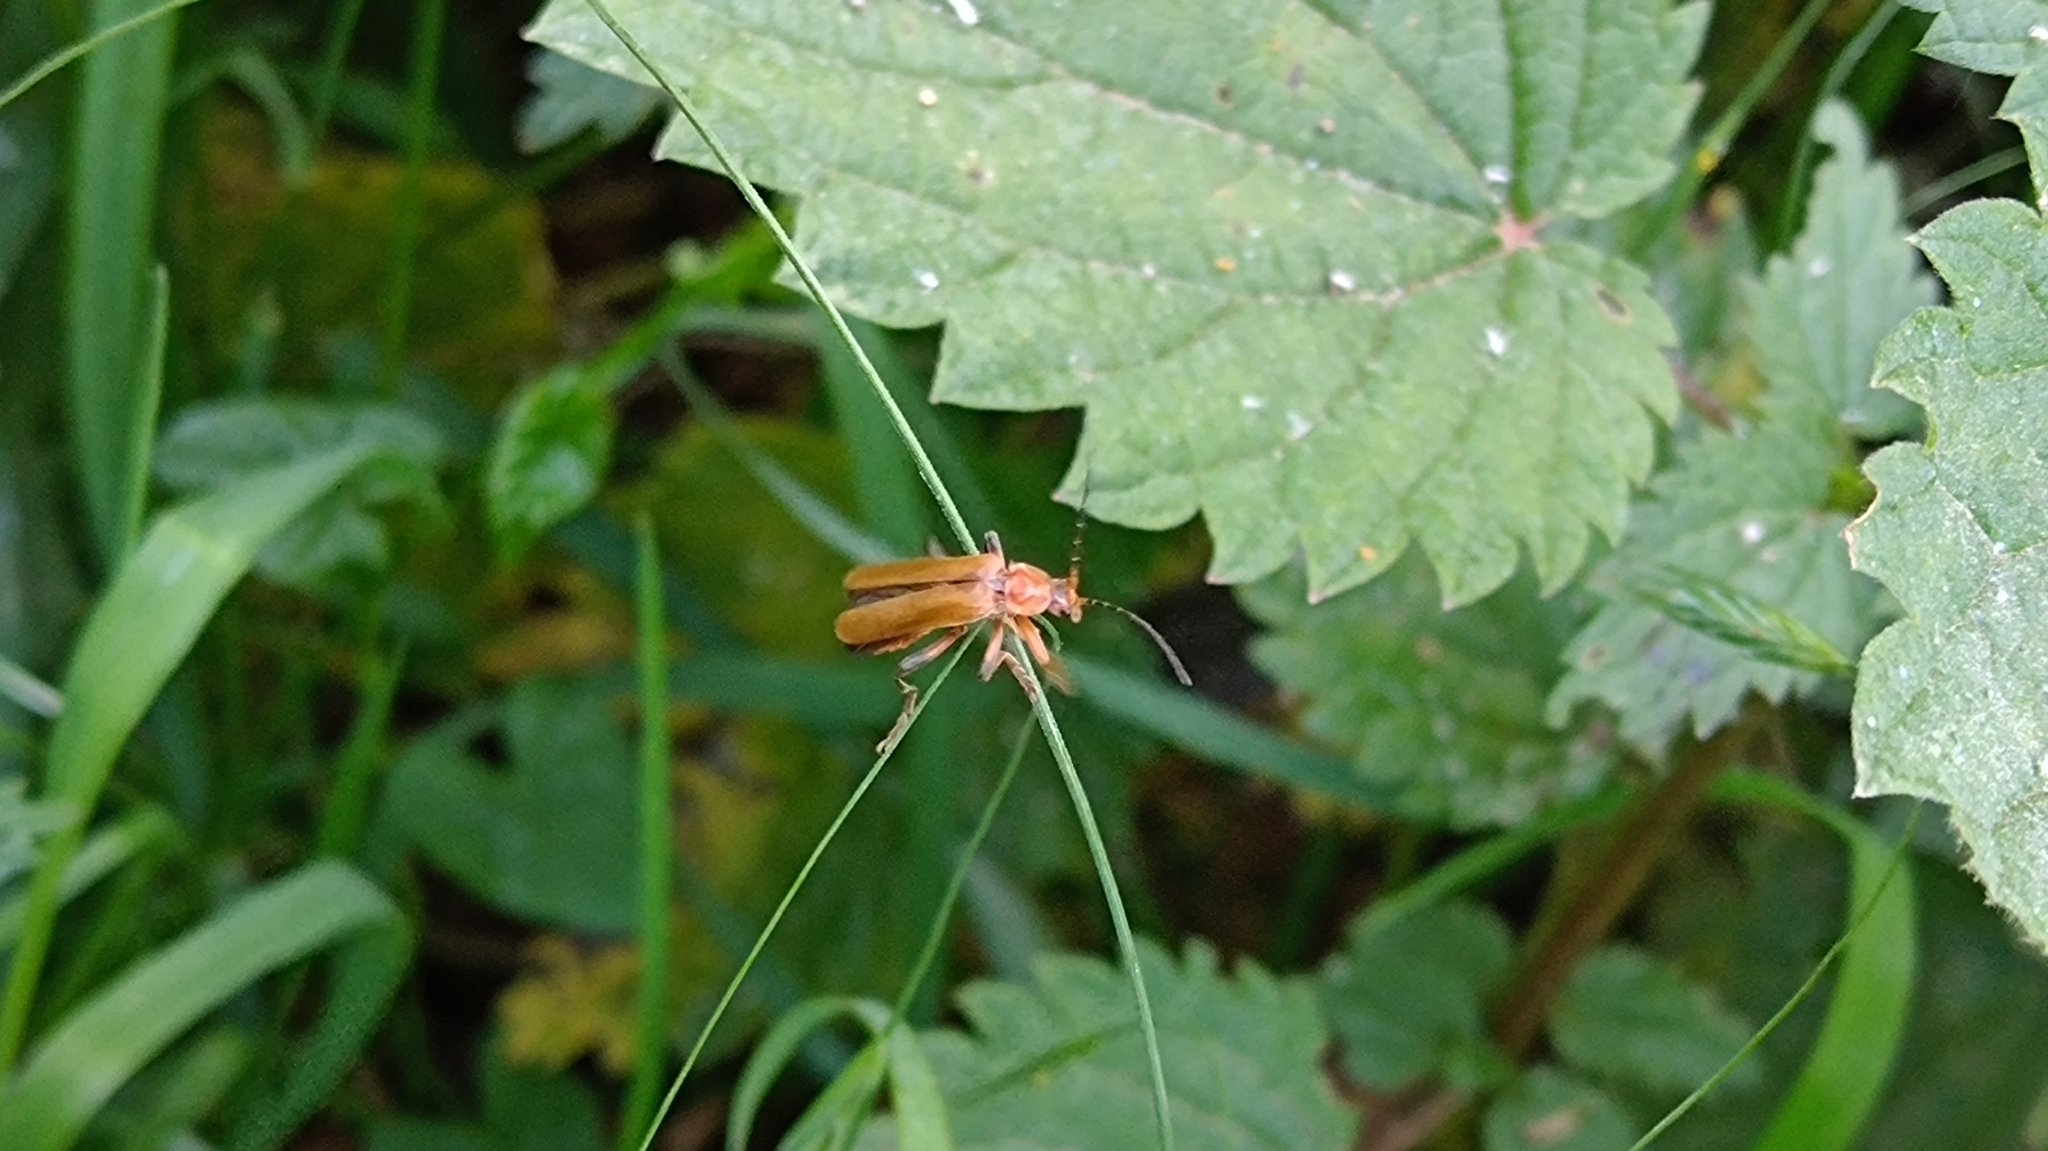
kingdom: Animalia
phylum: Arthropoda
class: Insecta
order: Coleoptera
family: Cantharidae
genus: Cantharis
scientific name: Cantharis livida
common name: Livid soldier beetle
